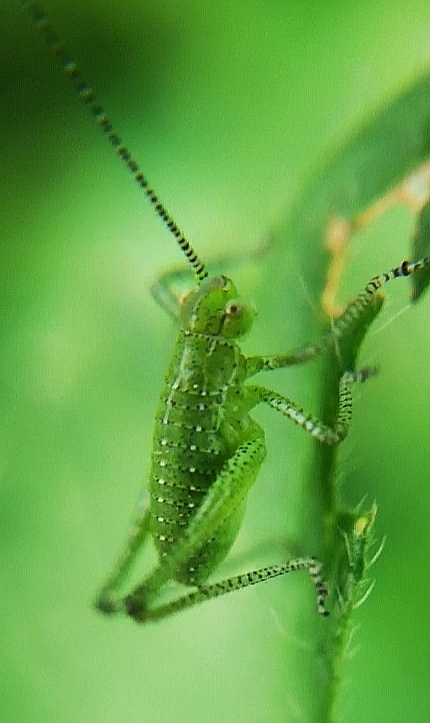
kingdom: Animalia
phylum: Arthropoda
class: Insecta
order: Orthoptera
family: Tettigoniidae
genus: Leptophyes
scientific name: Leptophyes boscii
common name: Balkan speckled bush-cricket
